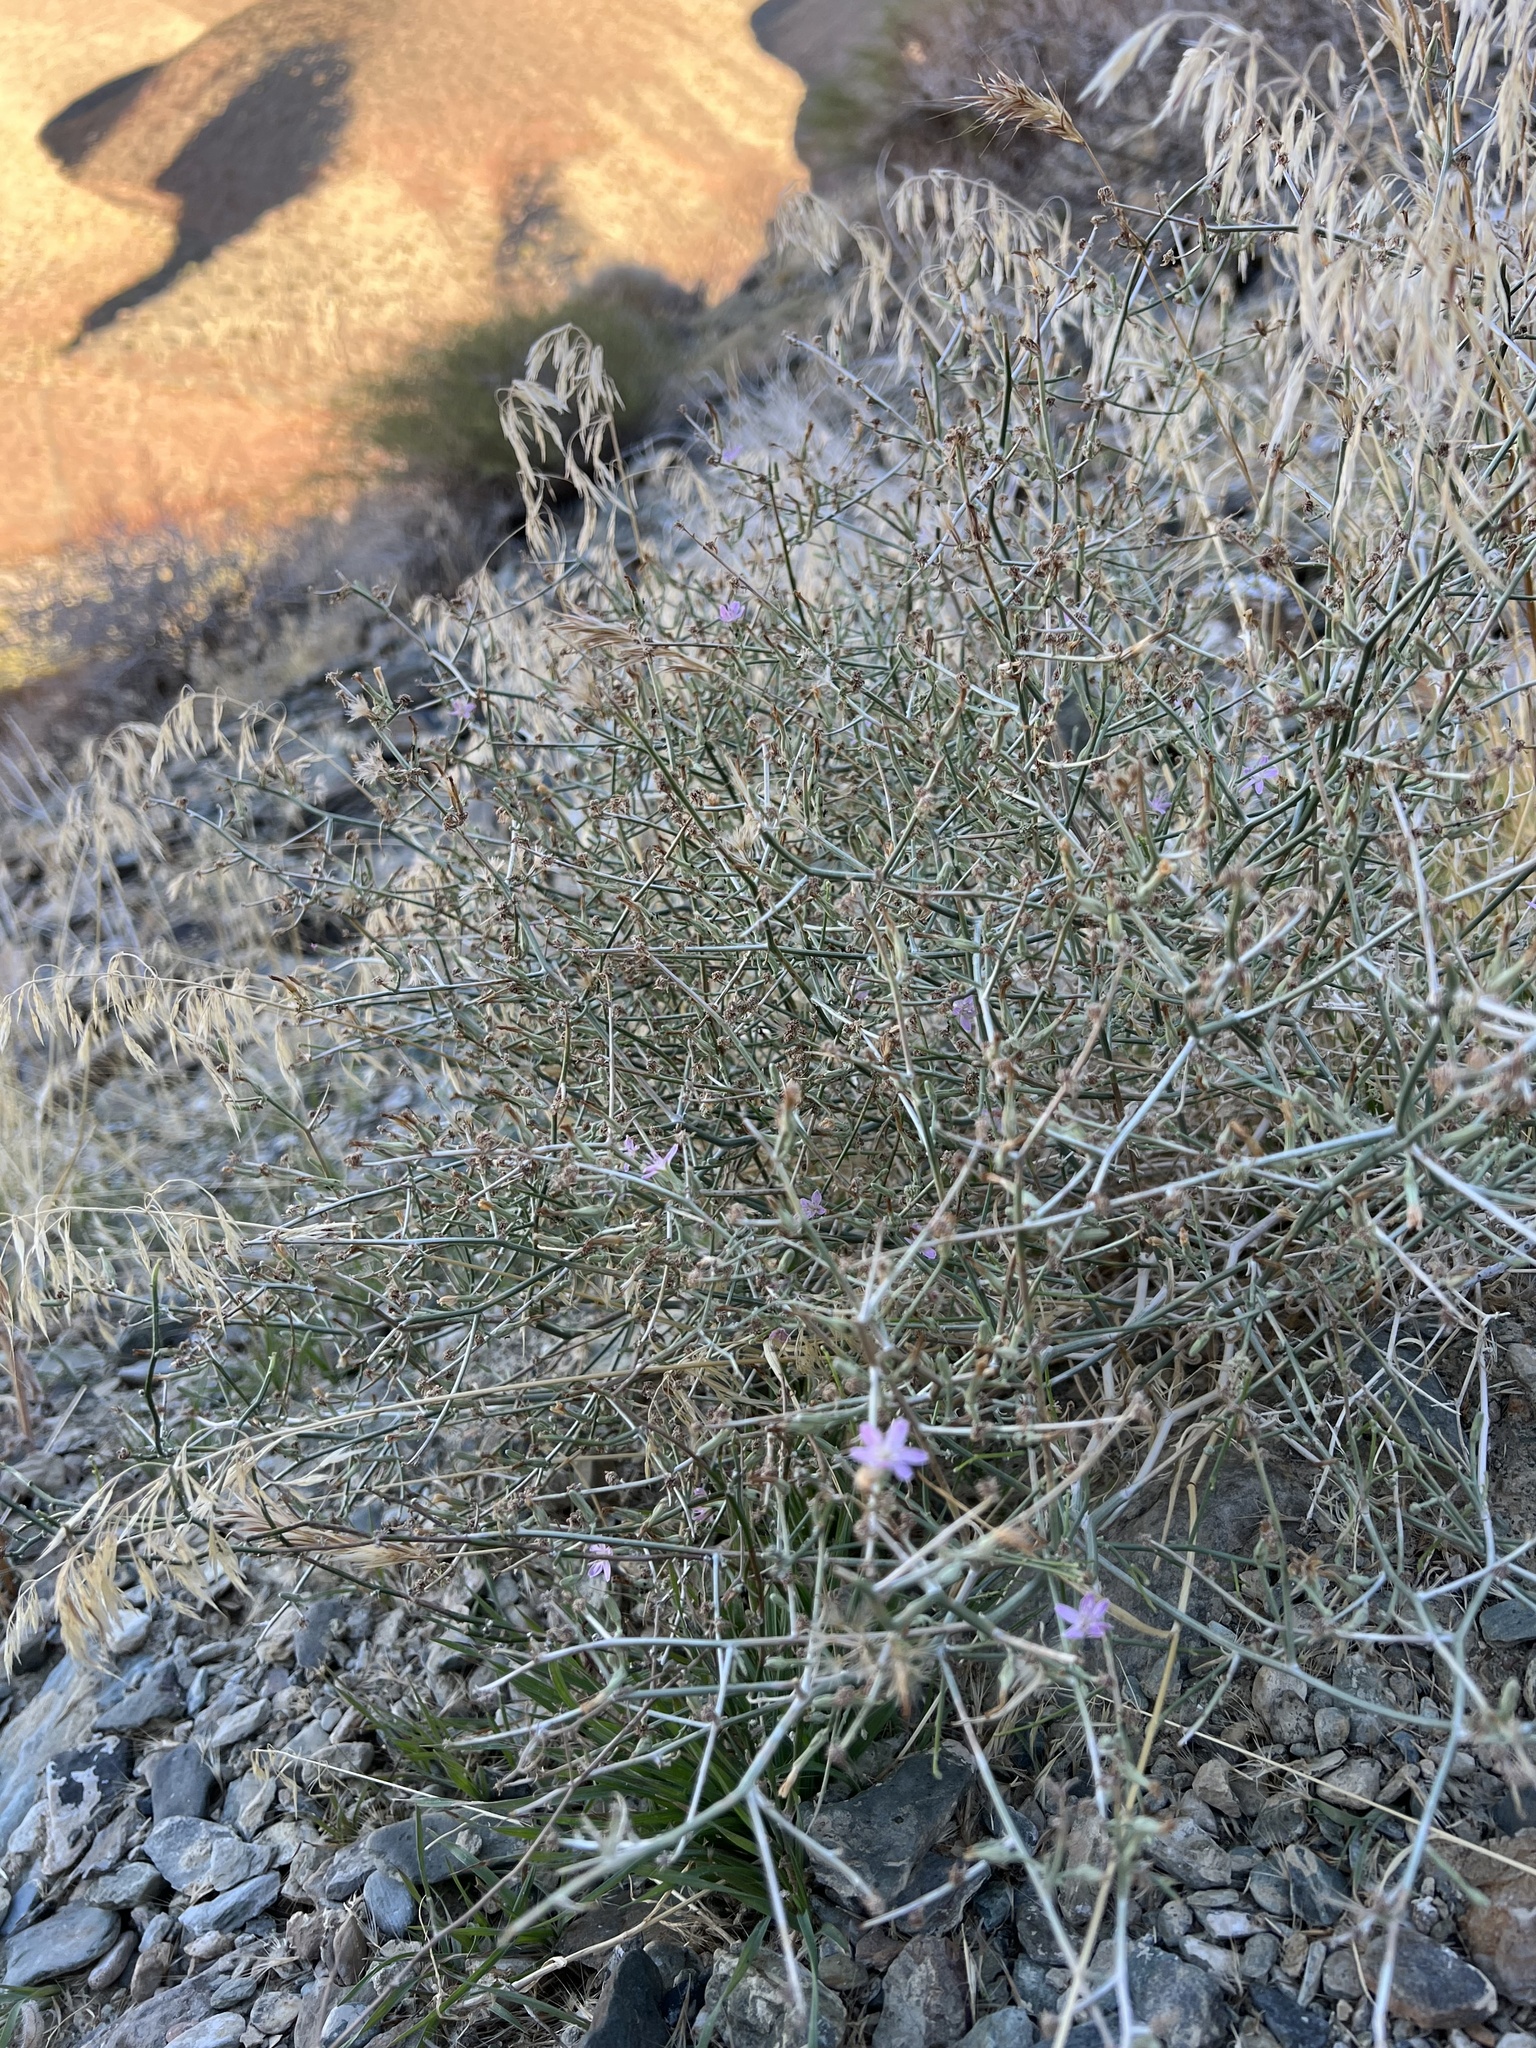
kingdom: Plantae
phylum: Tracheophyta
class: Magnoliopsida
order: Asterales
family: Asteraceae
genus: Stephanomeria
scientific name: Stephanomeria pauciflora
